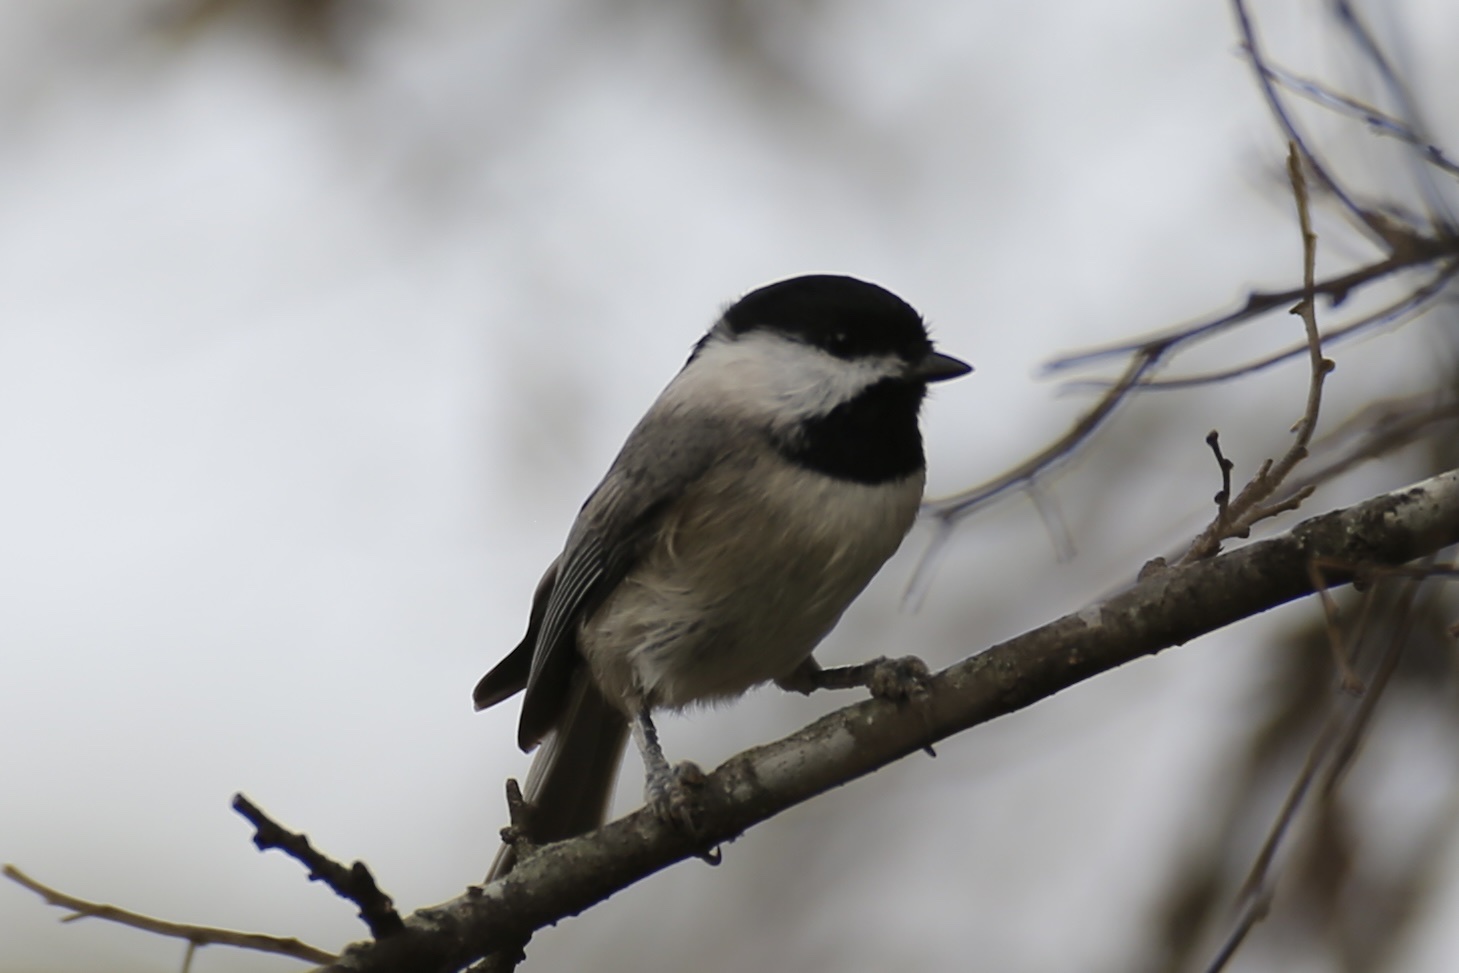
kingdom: Animalia
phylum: Chordata
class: Aves
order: Passeriformes
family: Paridae
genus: Poecile
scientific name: Poecile carolinensis
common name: Carolina chickadee
